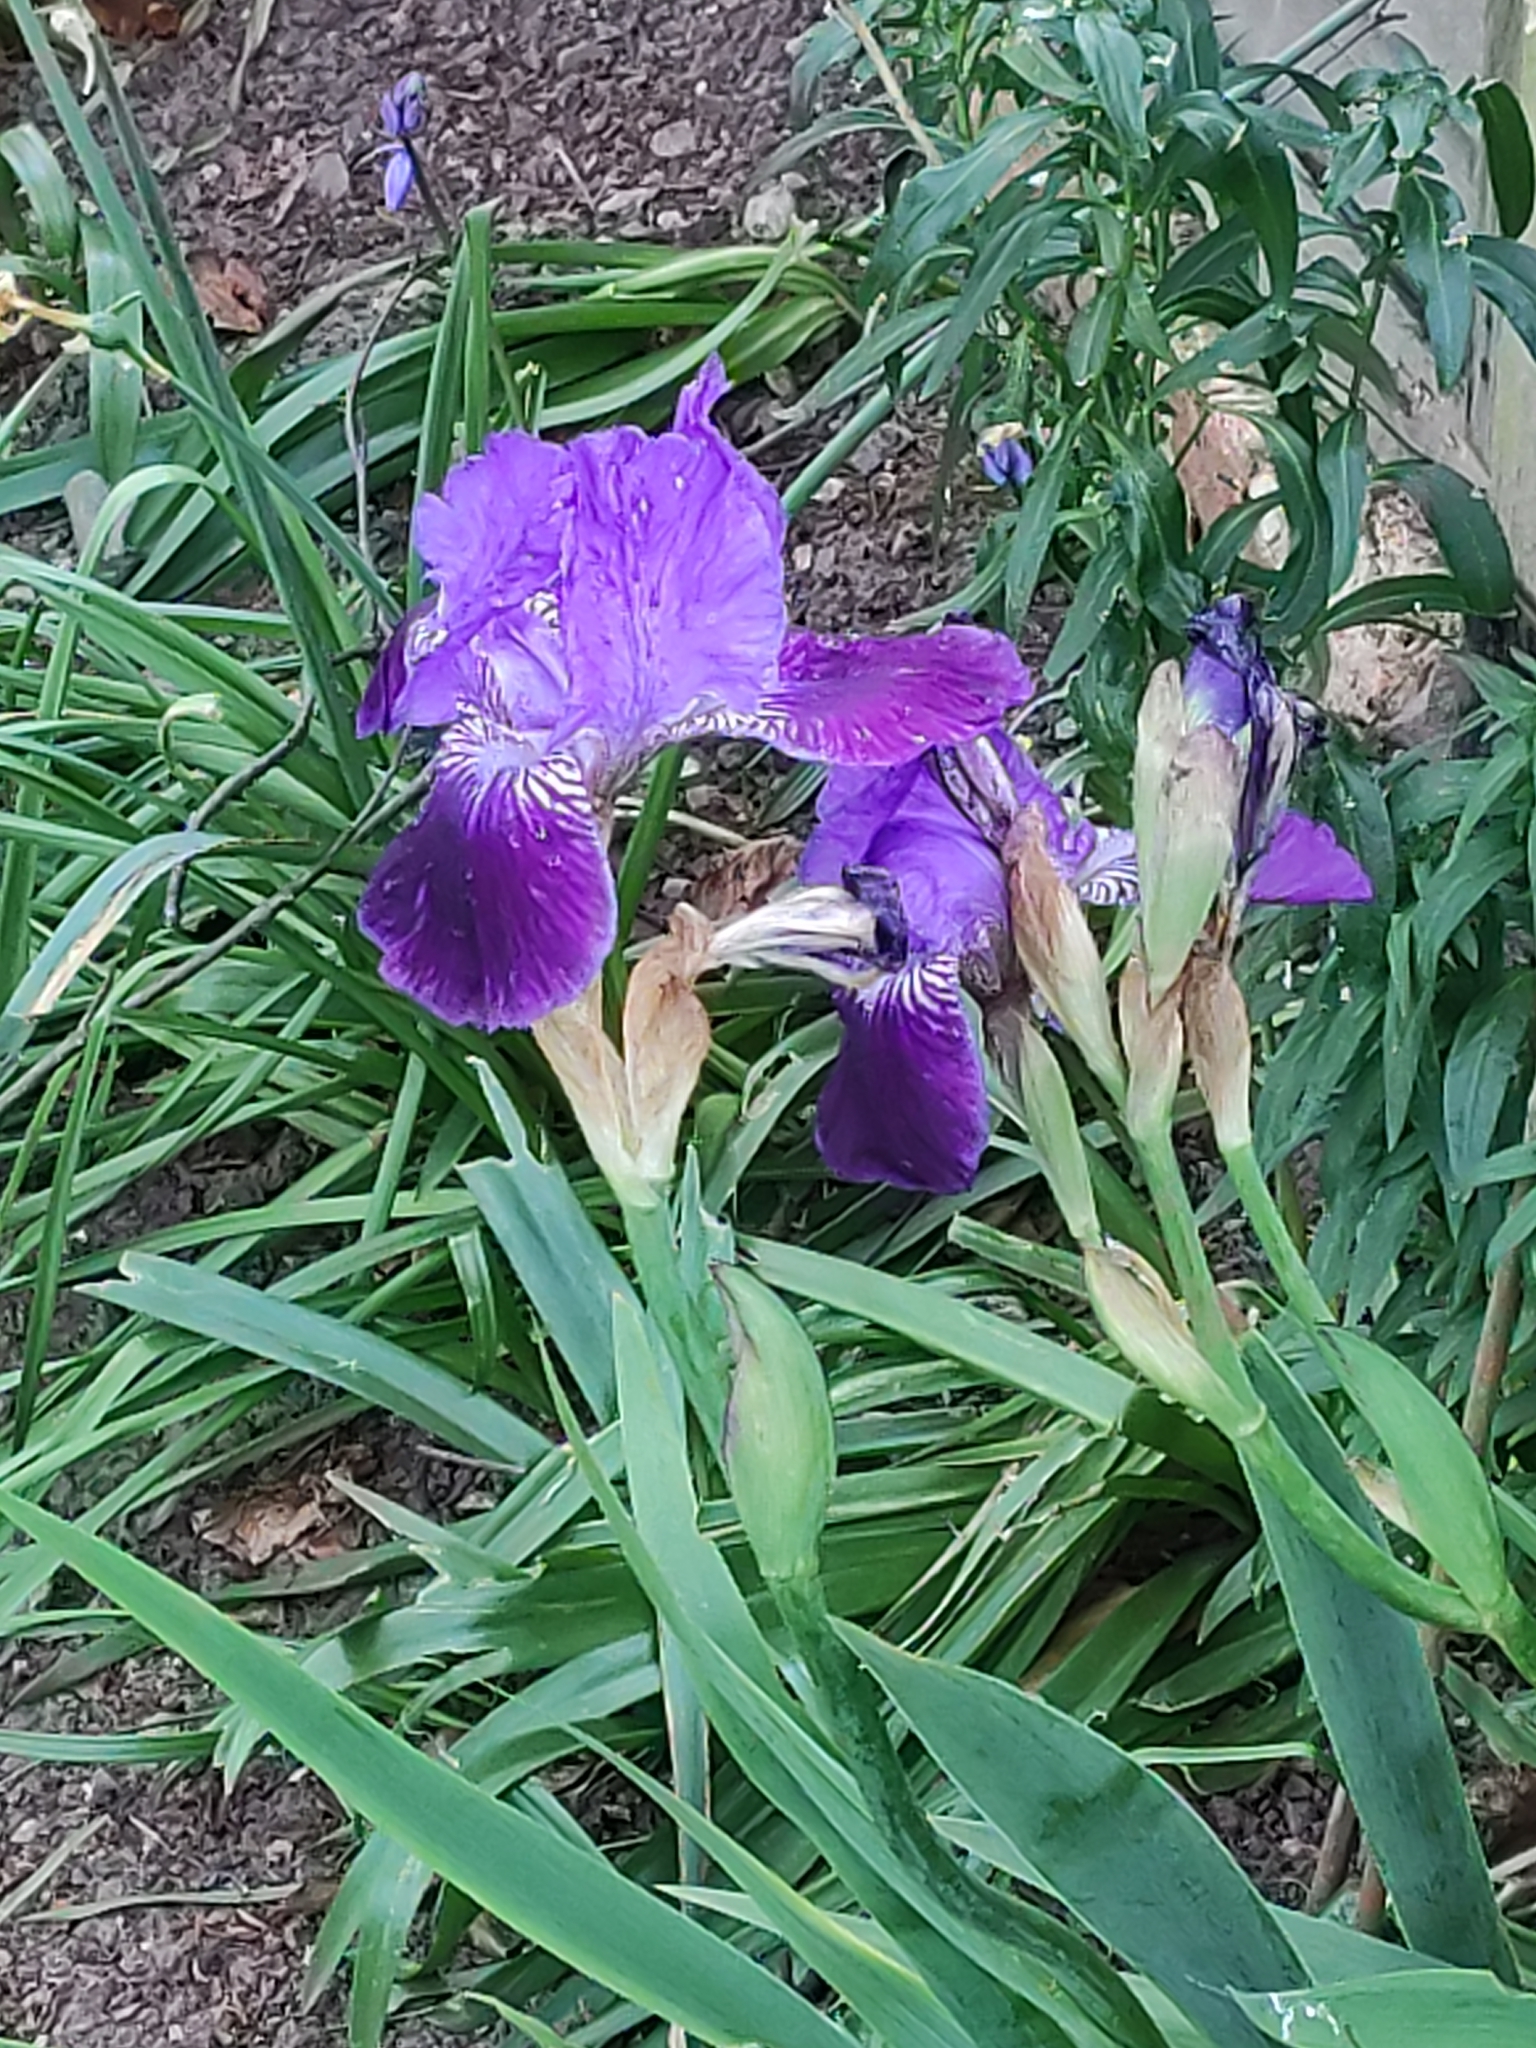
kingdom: Plantae
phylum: Tracheophyta
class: Liliopsida
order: Asparagales
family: Iridaceae
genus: Iris
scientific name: Iris germanica
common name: German iris
